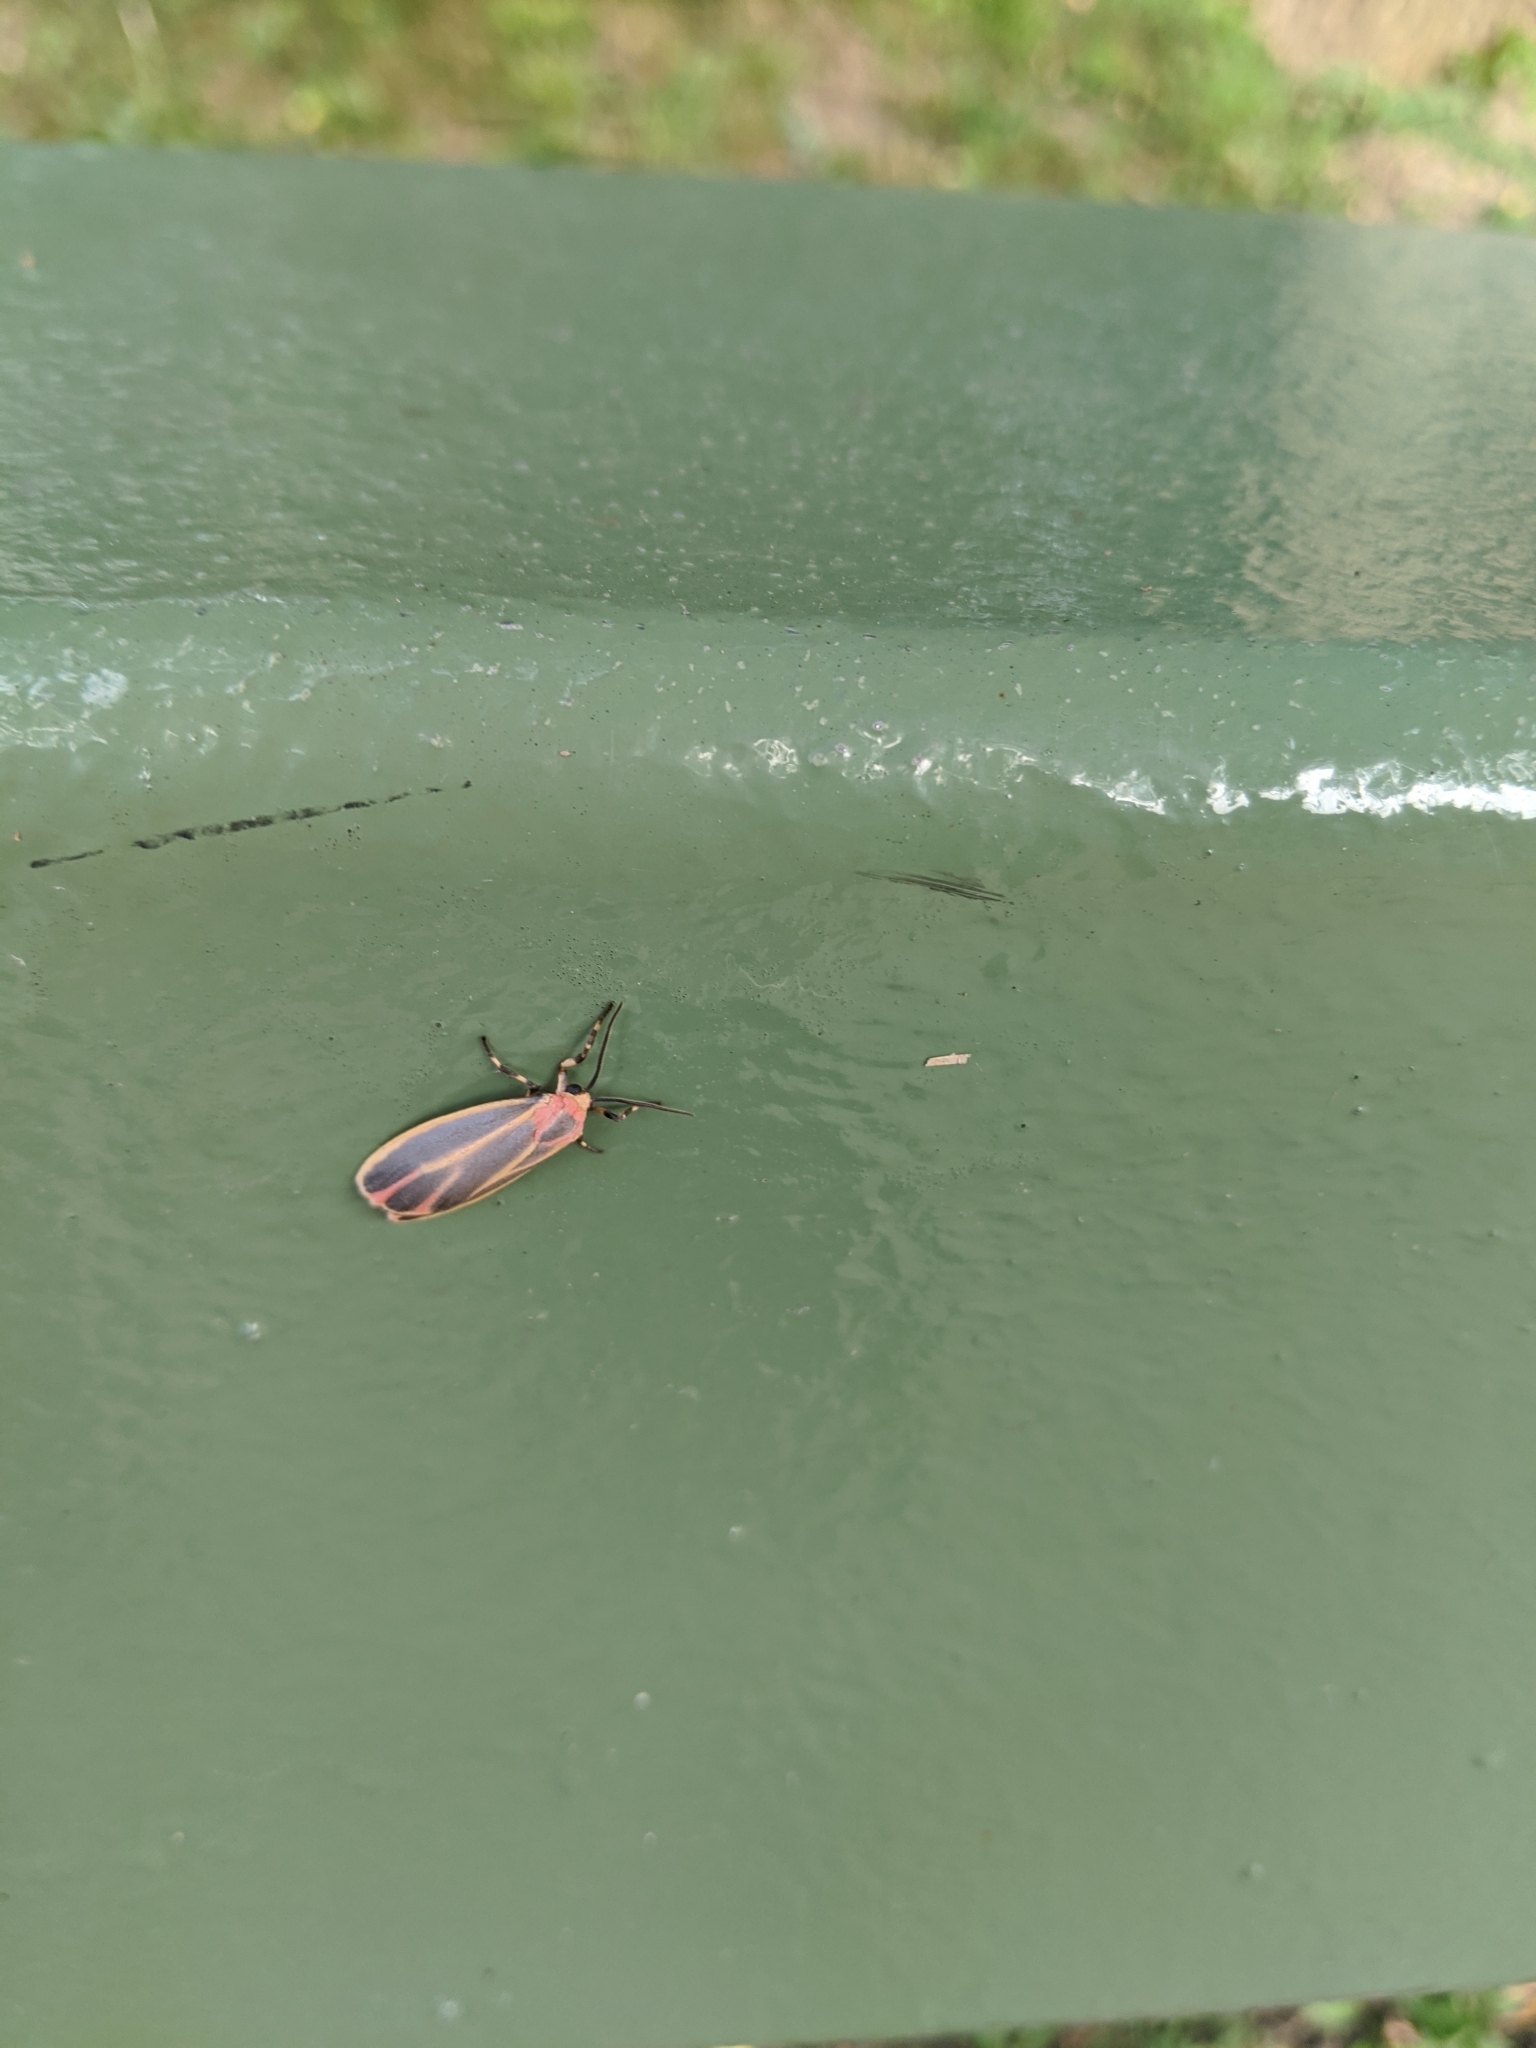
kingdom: Animalia
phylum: Arthropoda
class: Insecta
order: Lepidoptera
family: Erebidae
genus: Hypoprepia
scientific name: Hypoprepia fucosa
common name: Painted lichen moth
